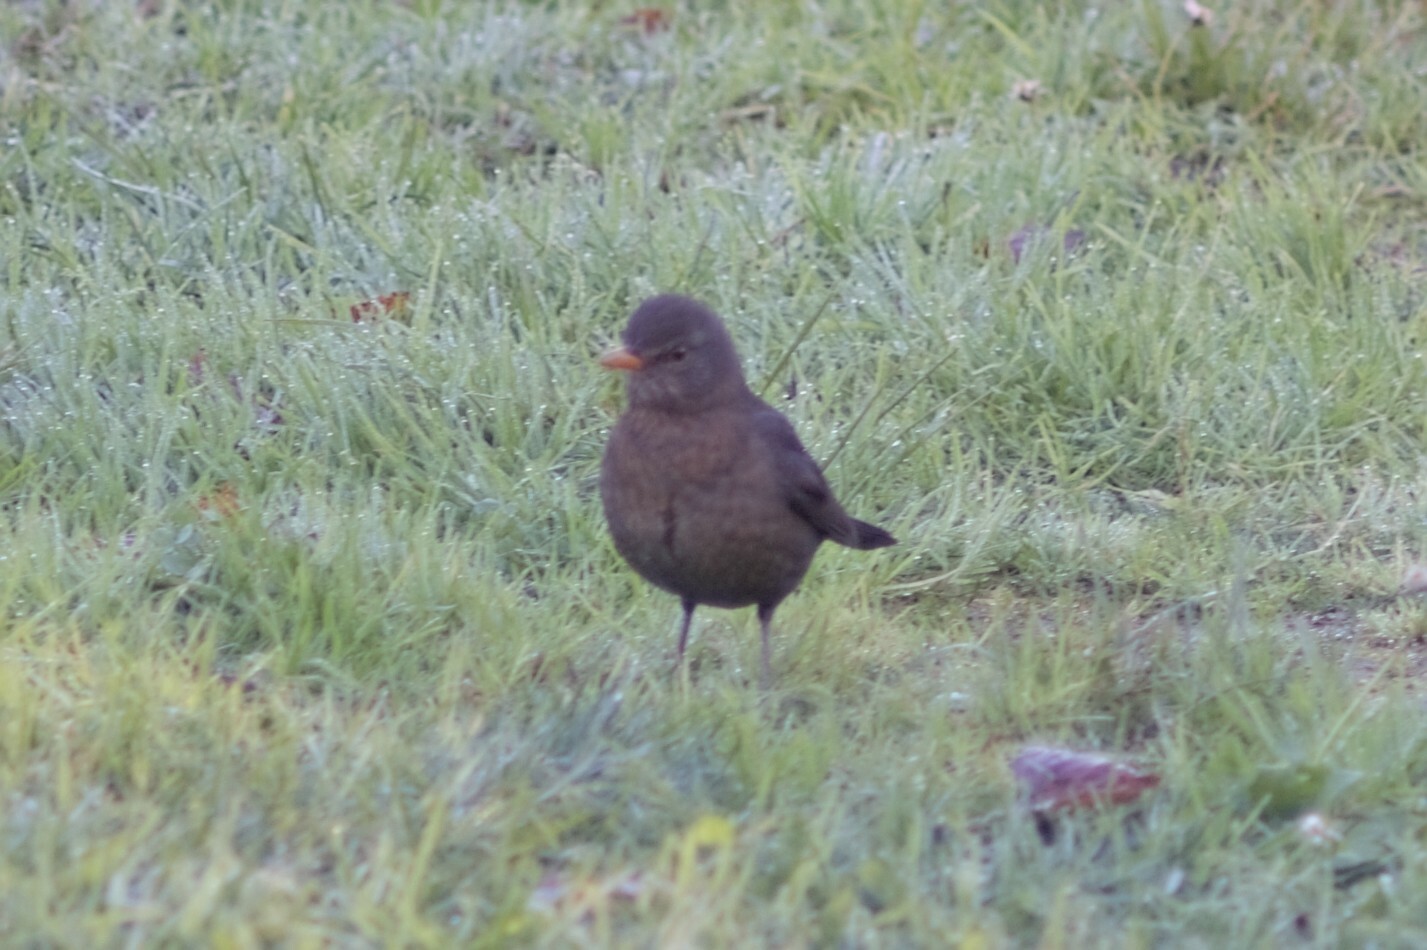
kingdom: Animalia
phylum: Chordata
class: Aves
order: Passeriformes
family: Turdidae
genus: Turdus
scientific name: Turdus merula
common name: Common blackbird
